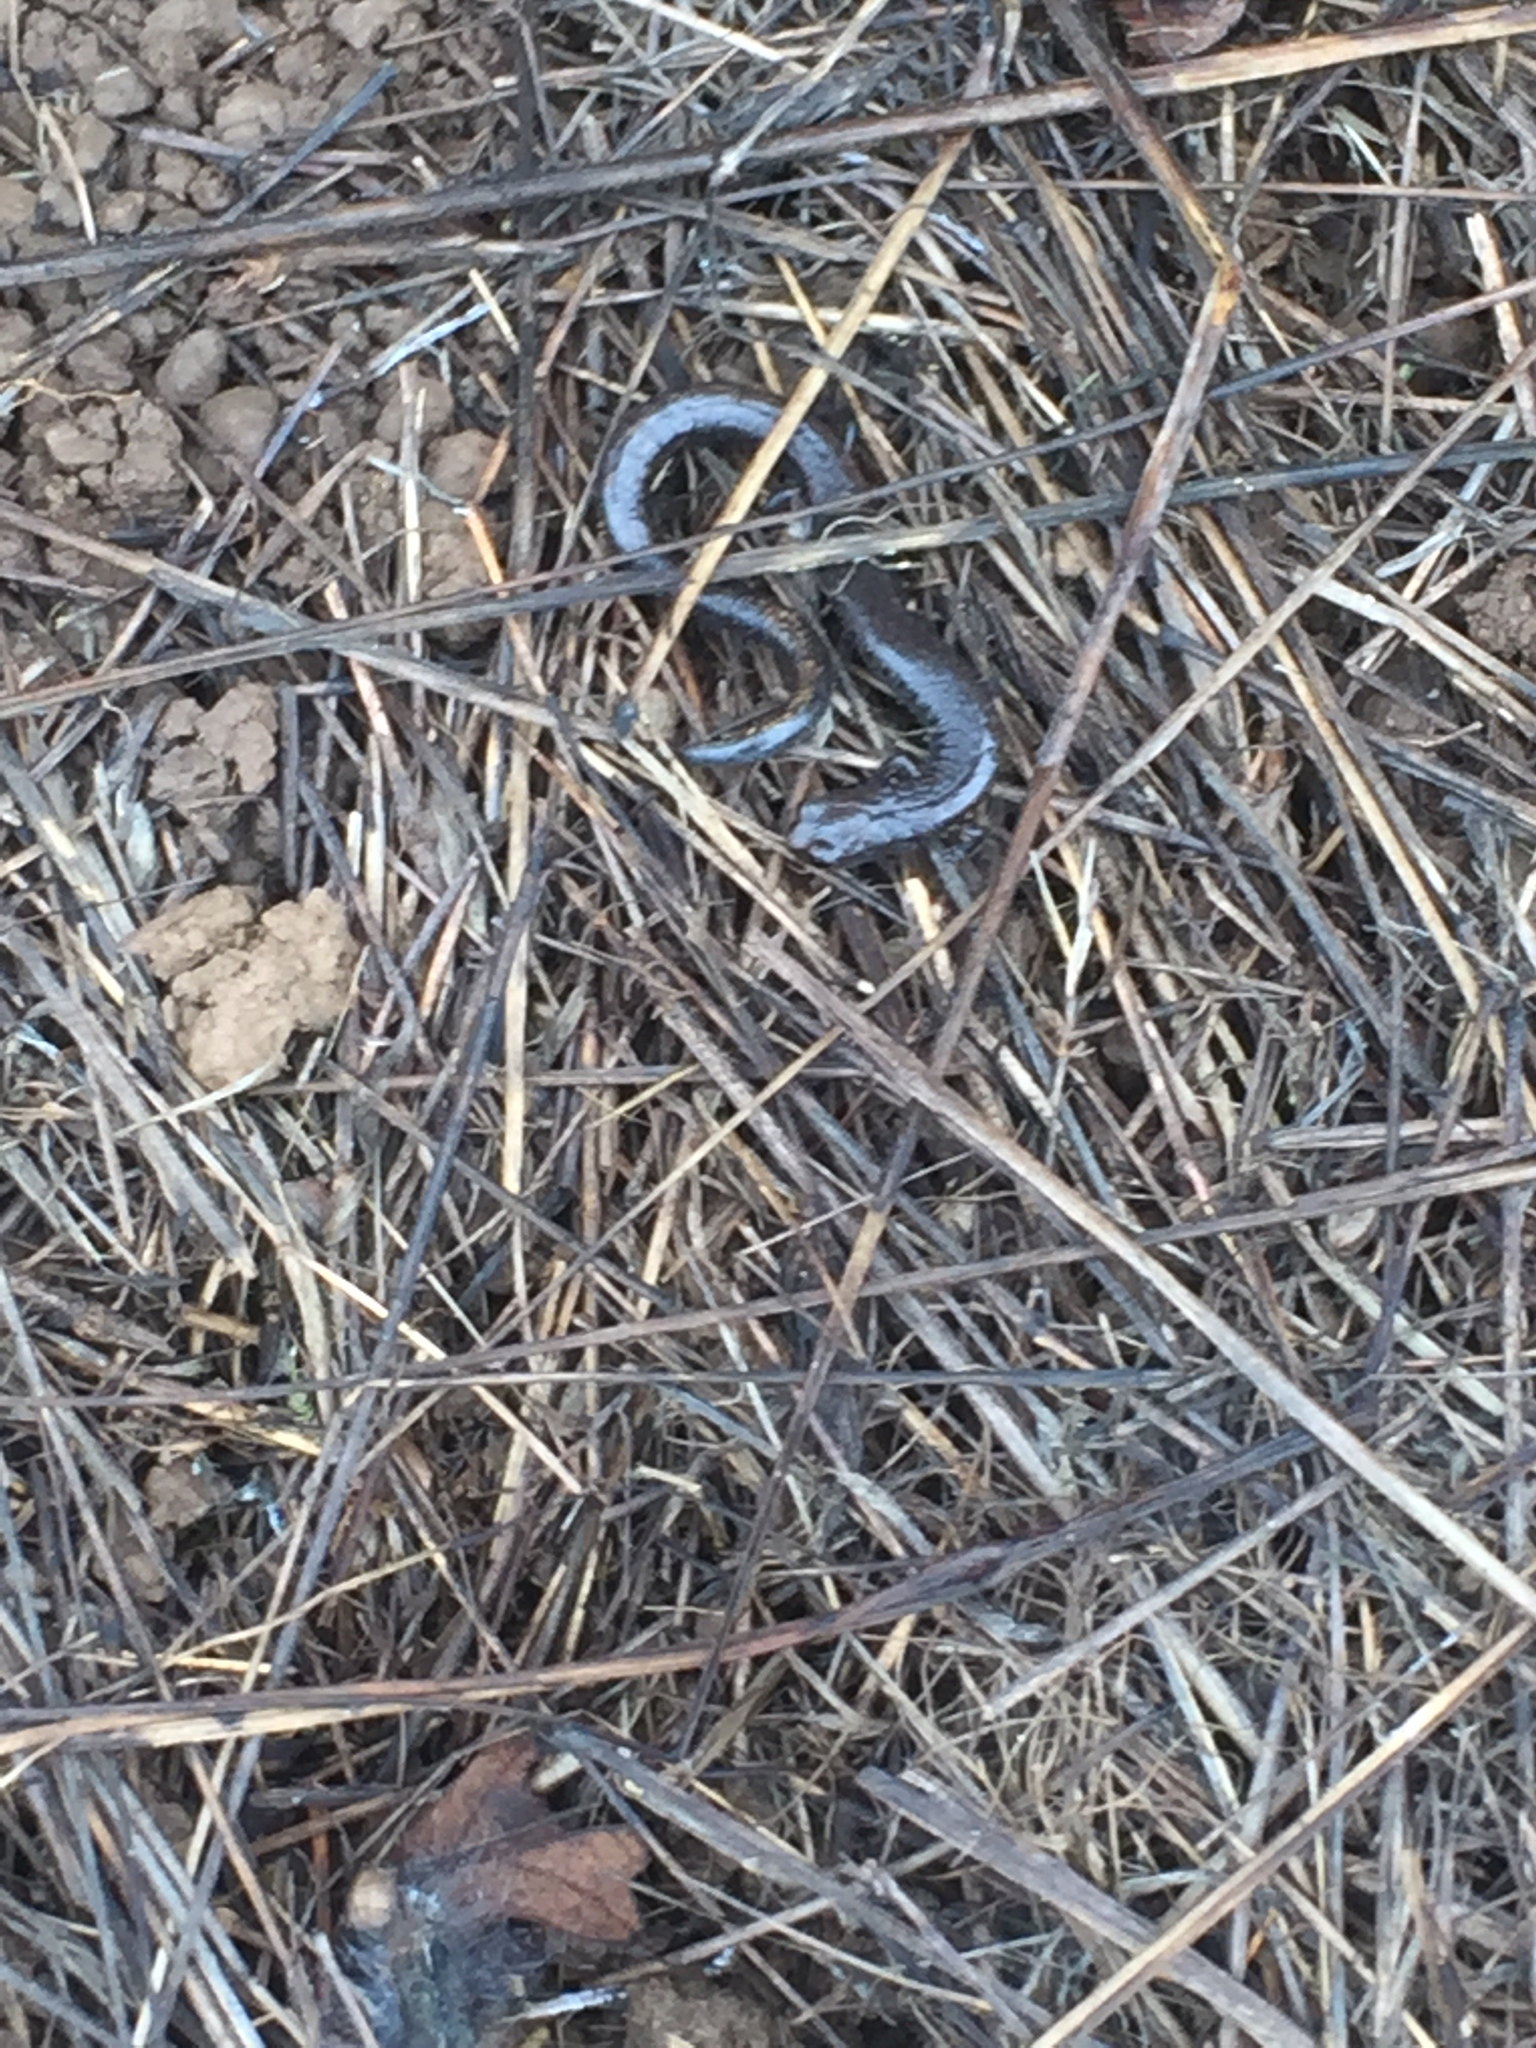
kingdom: Animalia
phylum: Chordata
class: Amphibia
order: Caudata
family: Plethodontidae
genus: Batrachoseps
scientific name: Batrachoseps attenuatus
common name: California slender salamander
